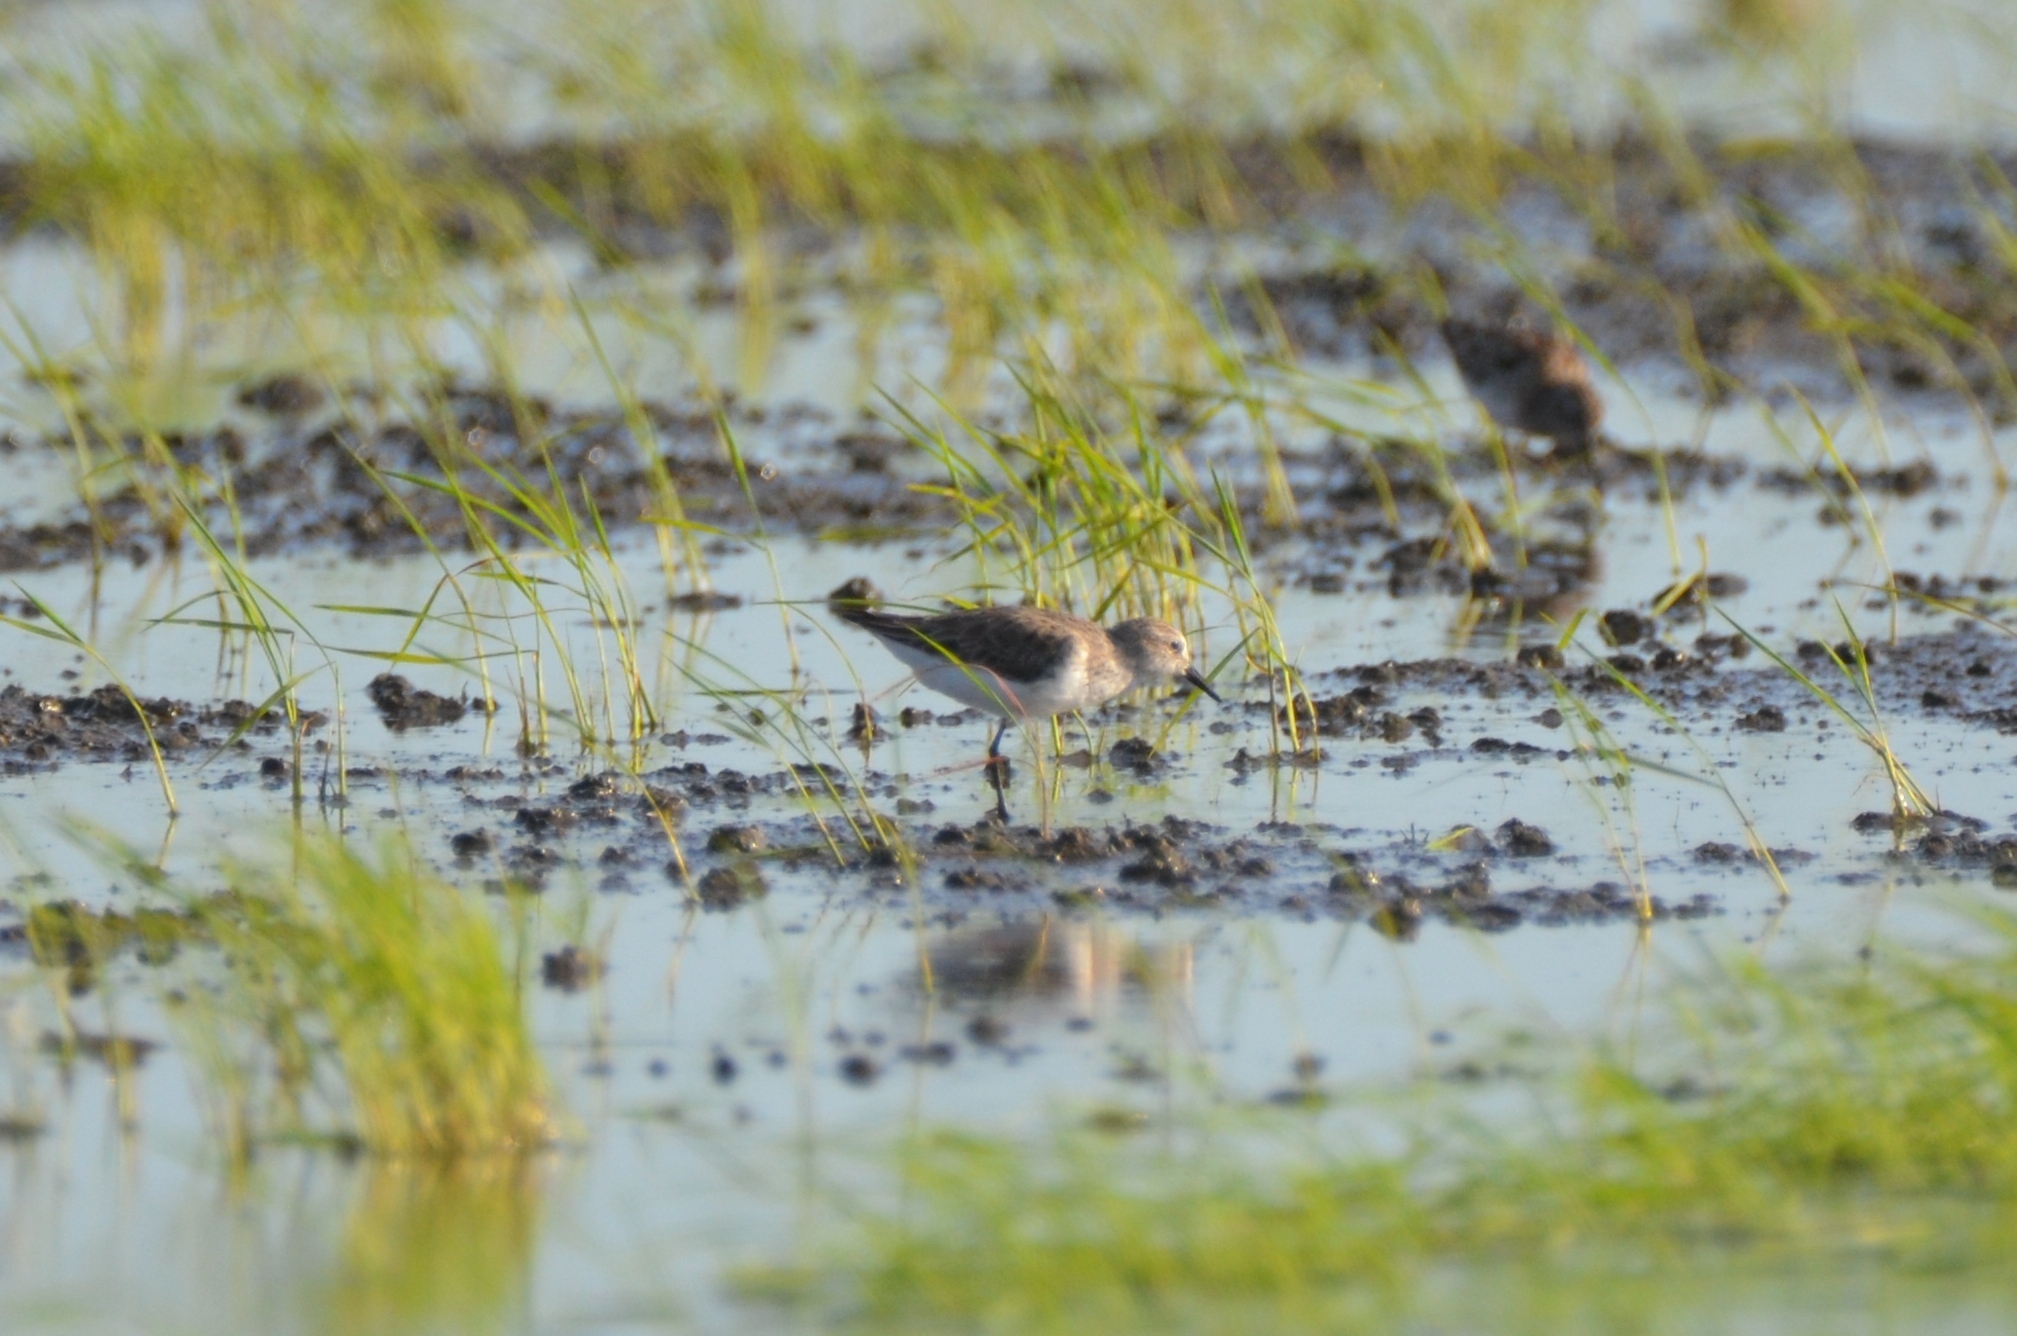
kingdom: Animalia
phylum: Chordata
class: Aves
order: Charadriiformes
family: Scolopacidae
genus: Calidris
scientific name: Calidris pusilla
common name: Semipalmated sandpiper
